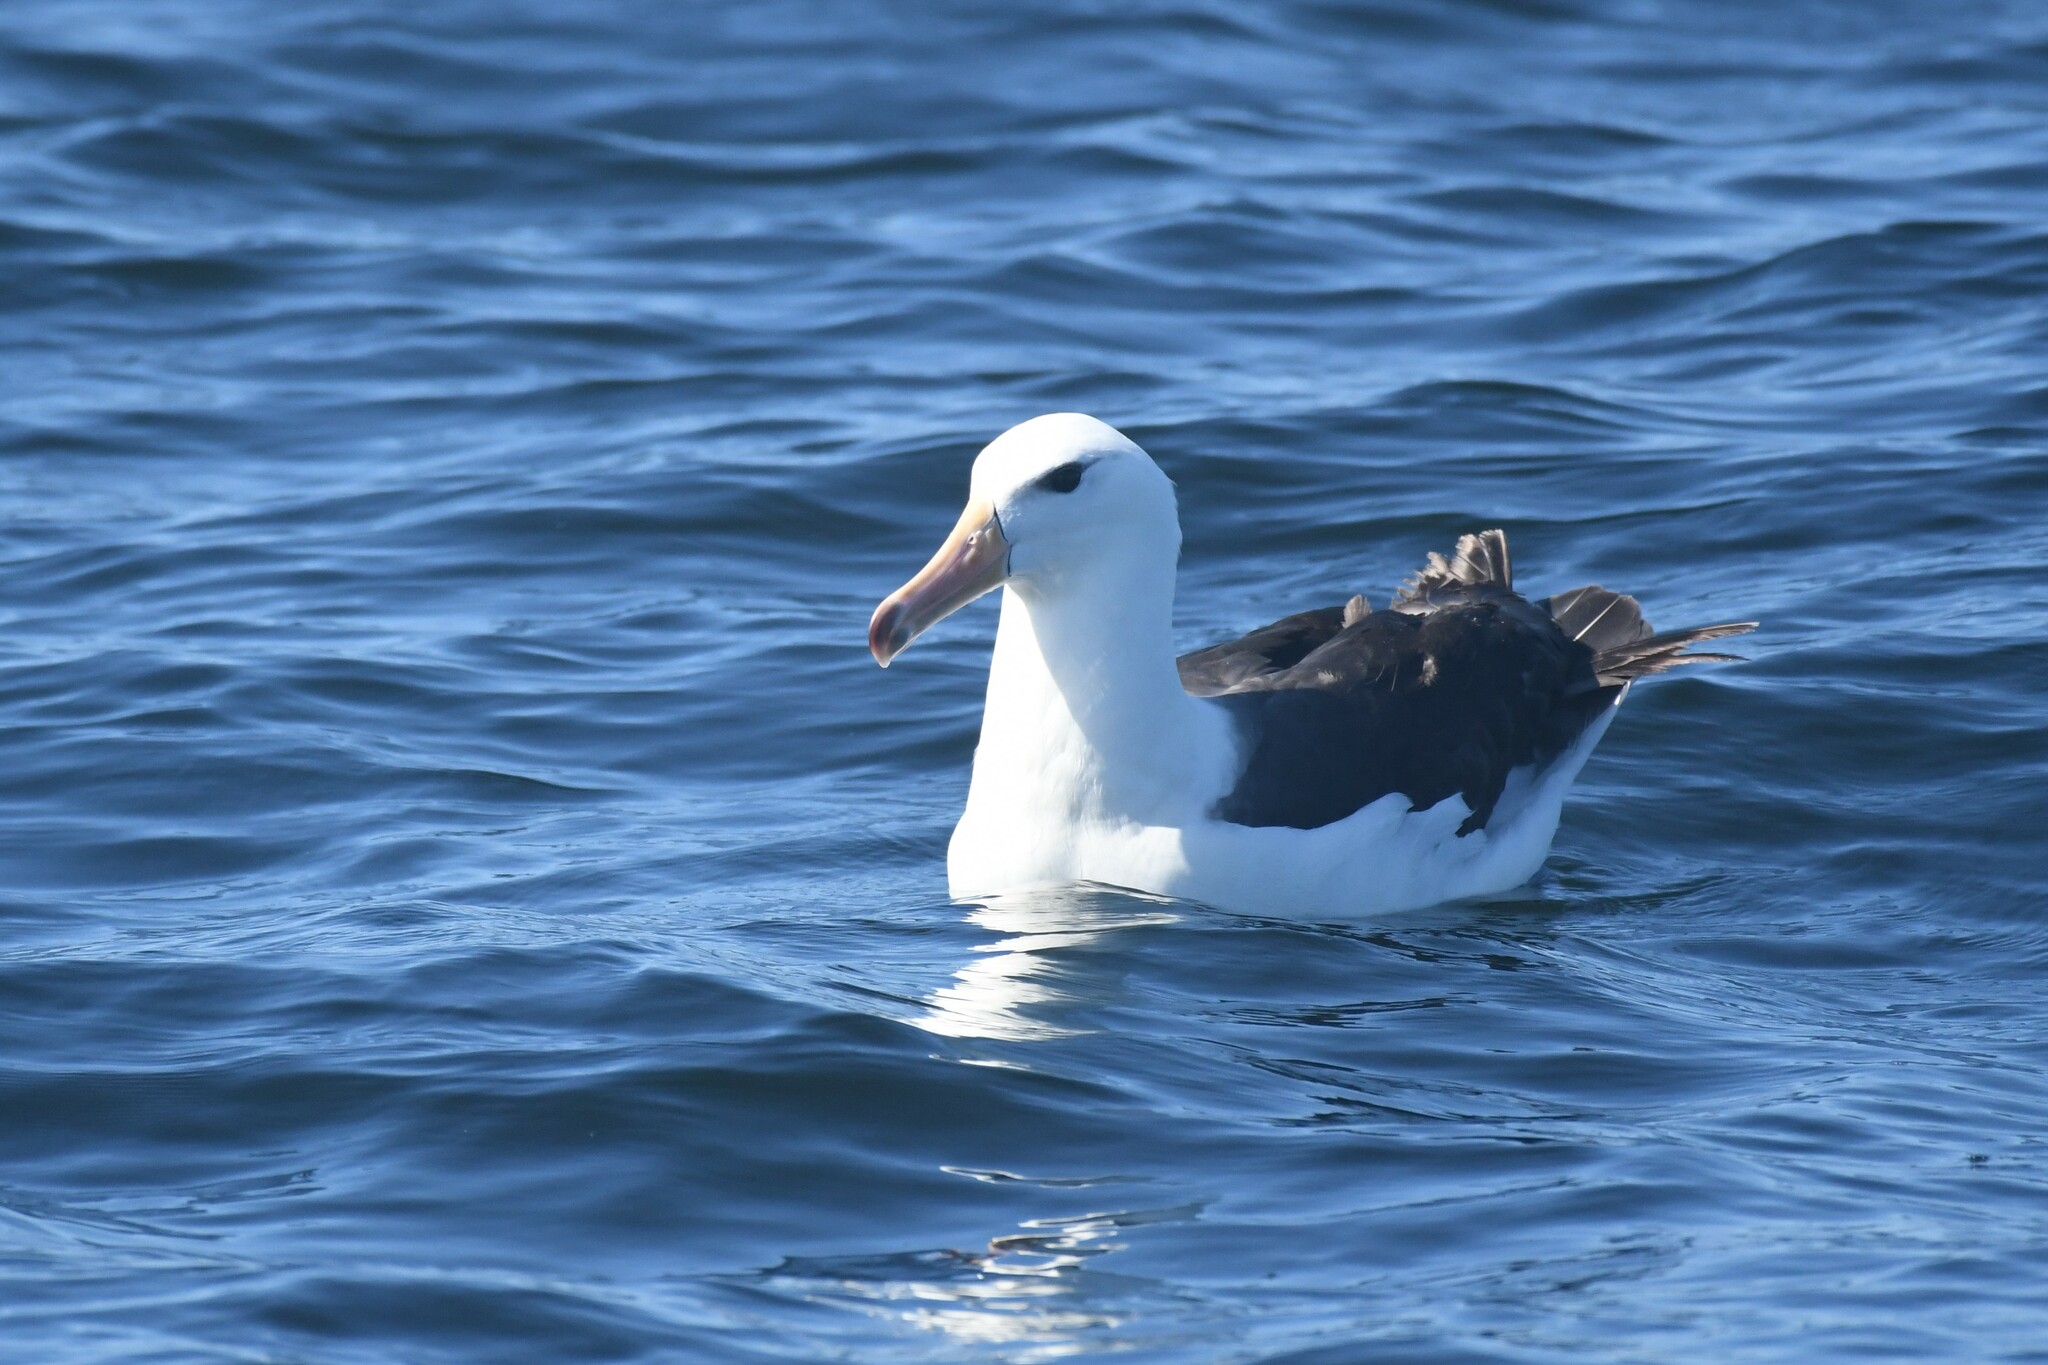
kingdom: Animalia
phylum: Chordata
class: Aves
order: Procellariiformes
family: Diomedeidae
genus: Thalassarche
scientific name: Thalassarche melanophris
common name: Black-browed albatross
